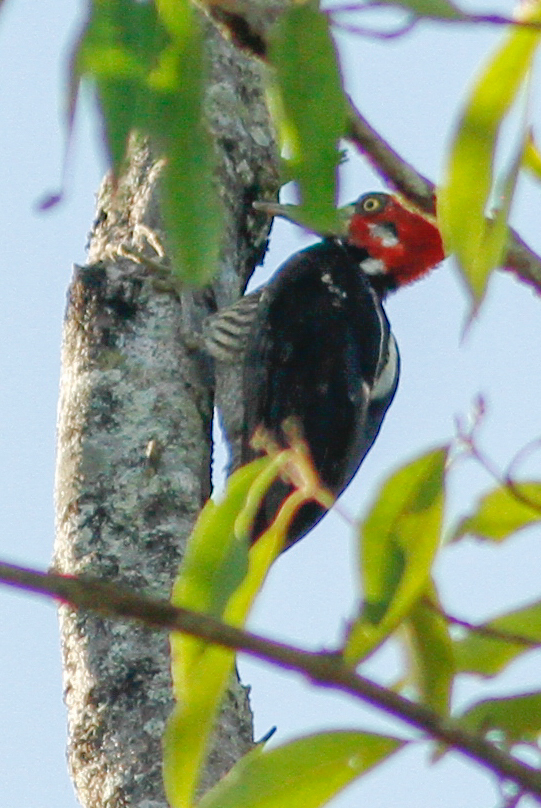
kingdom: Animalia
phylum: Chordata
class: Aves
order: Piciformes
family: Picidae
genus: Campephilus
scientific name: Campephilus melanoleucos
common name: Crimson-crested woodpecker
